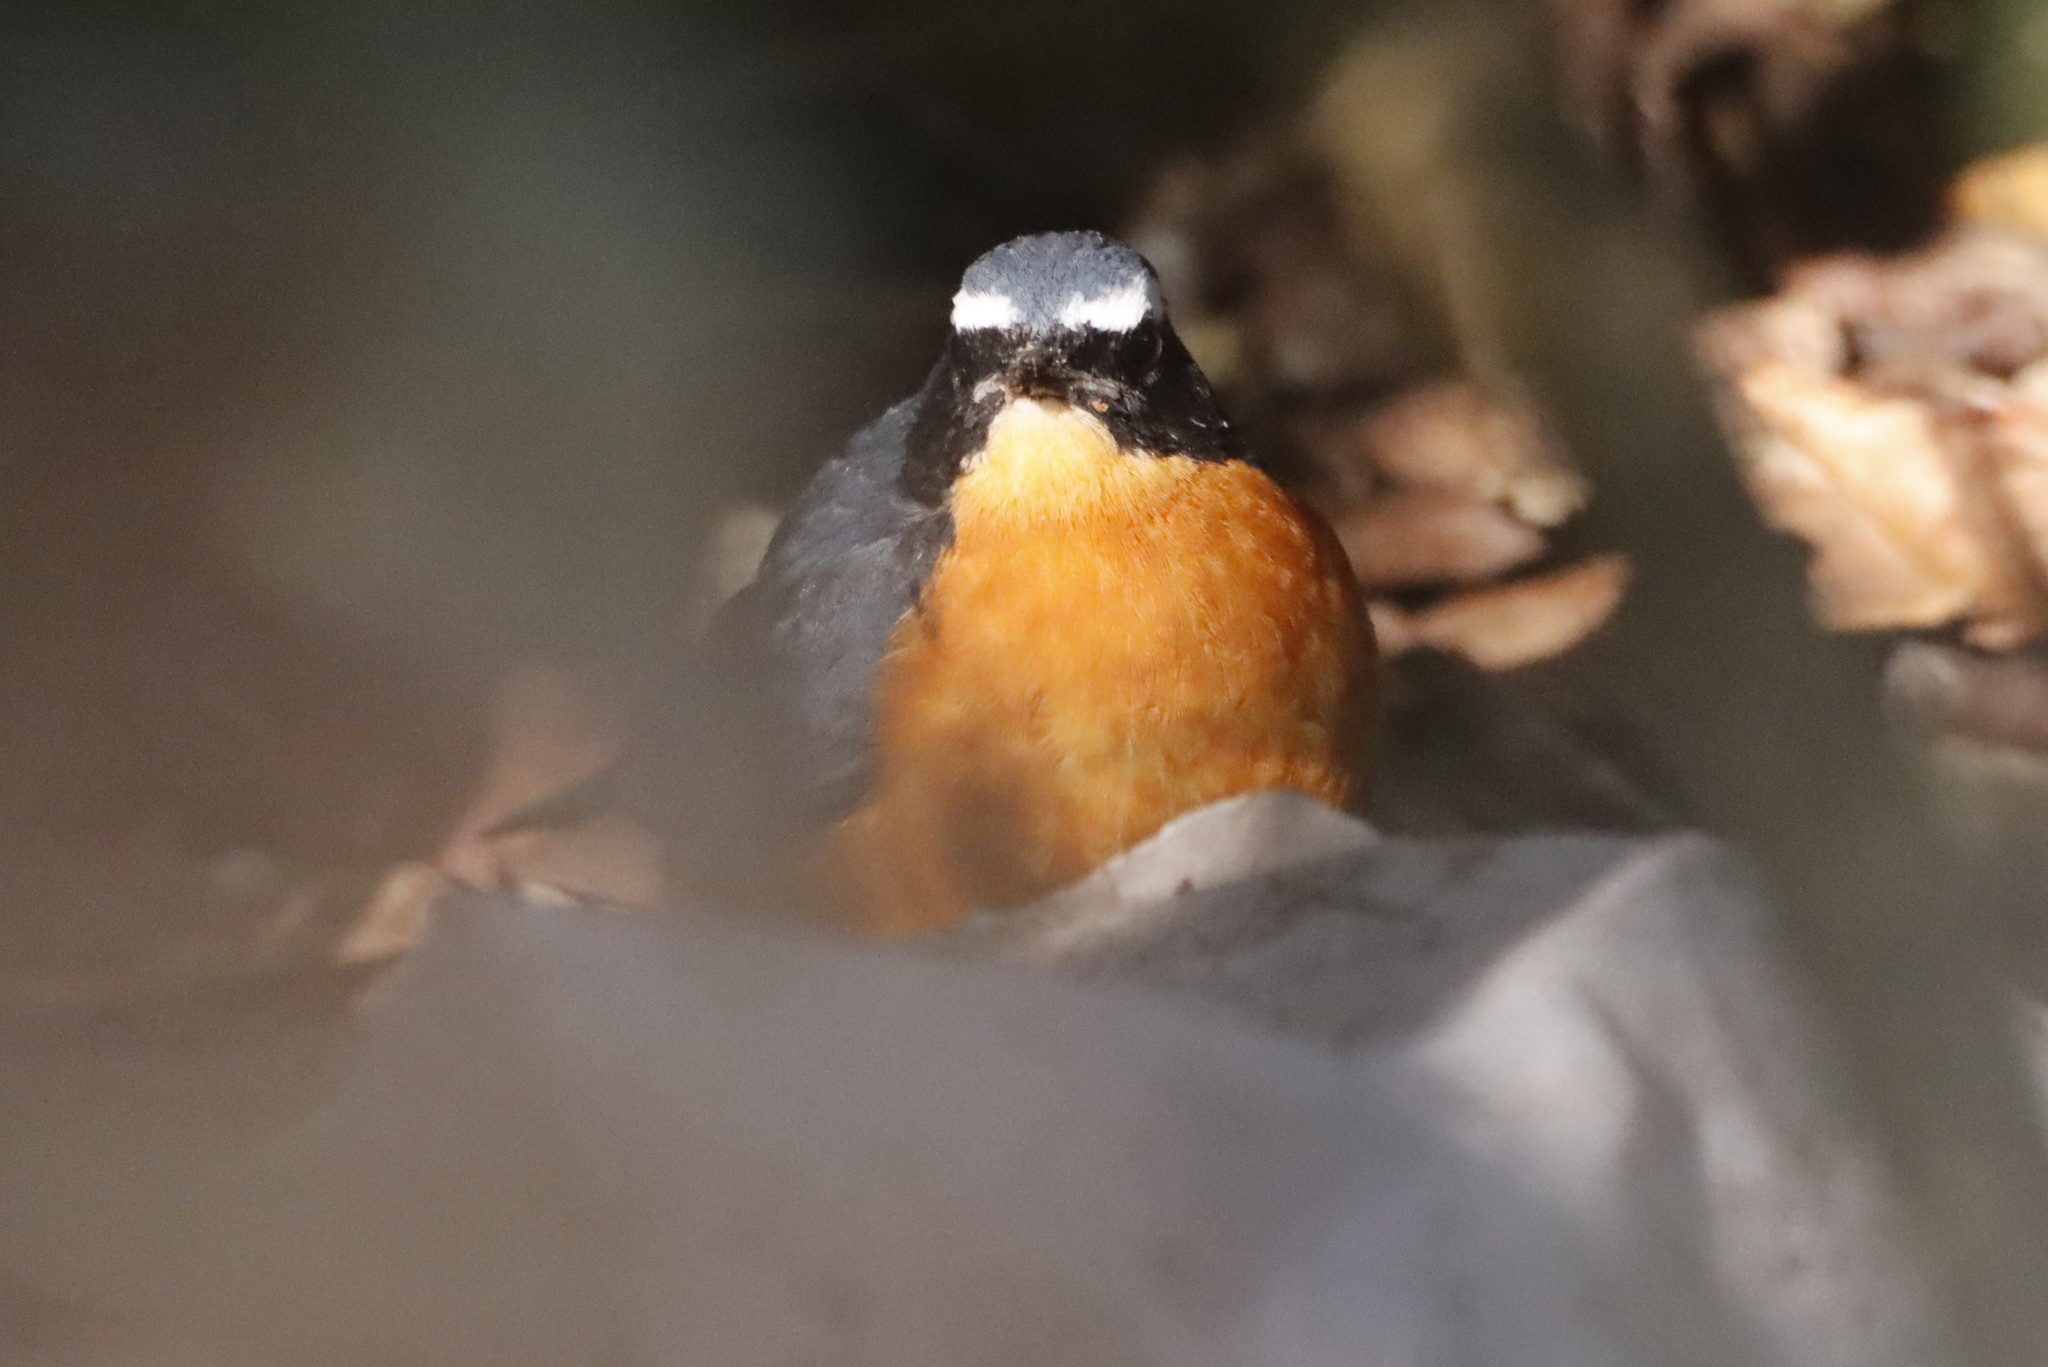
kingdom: Animalia
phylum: Chordata
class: Aves
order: Passeriformes
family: Muscicapidae
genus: Luscinia
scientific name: Luscinia brunnea
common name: Indian blue robin
